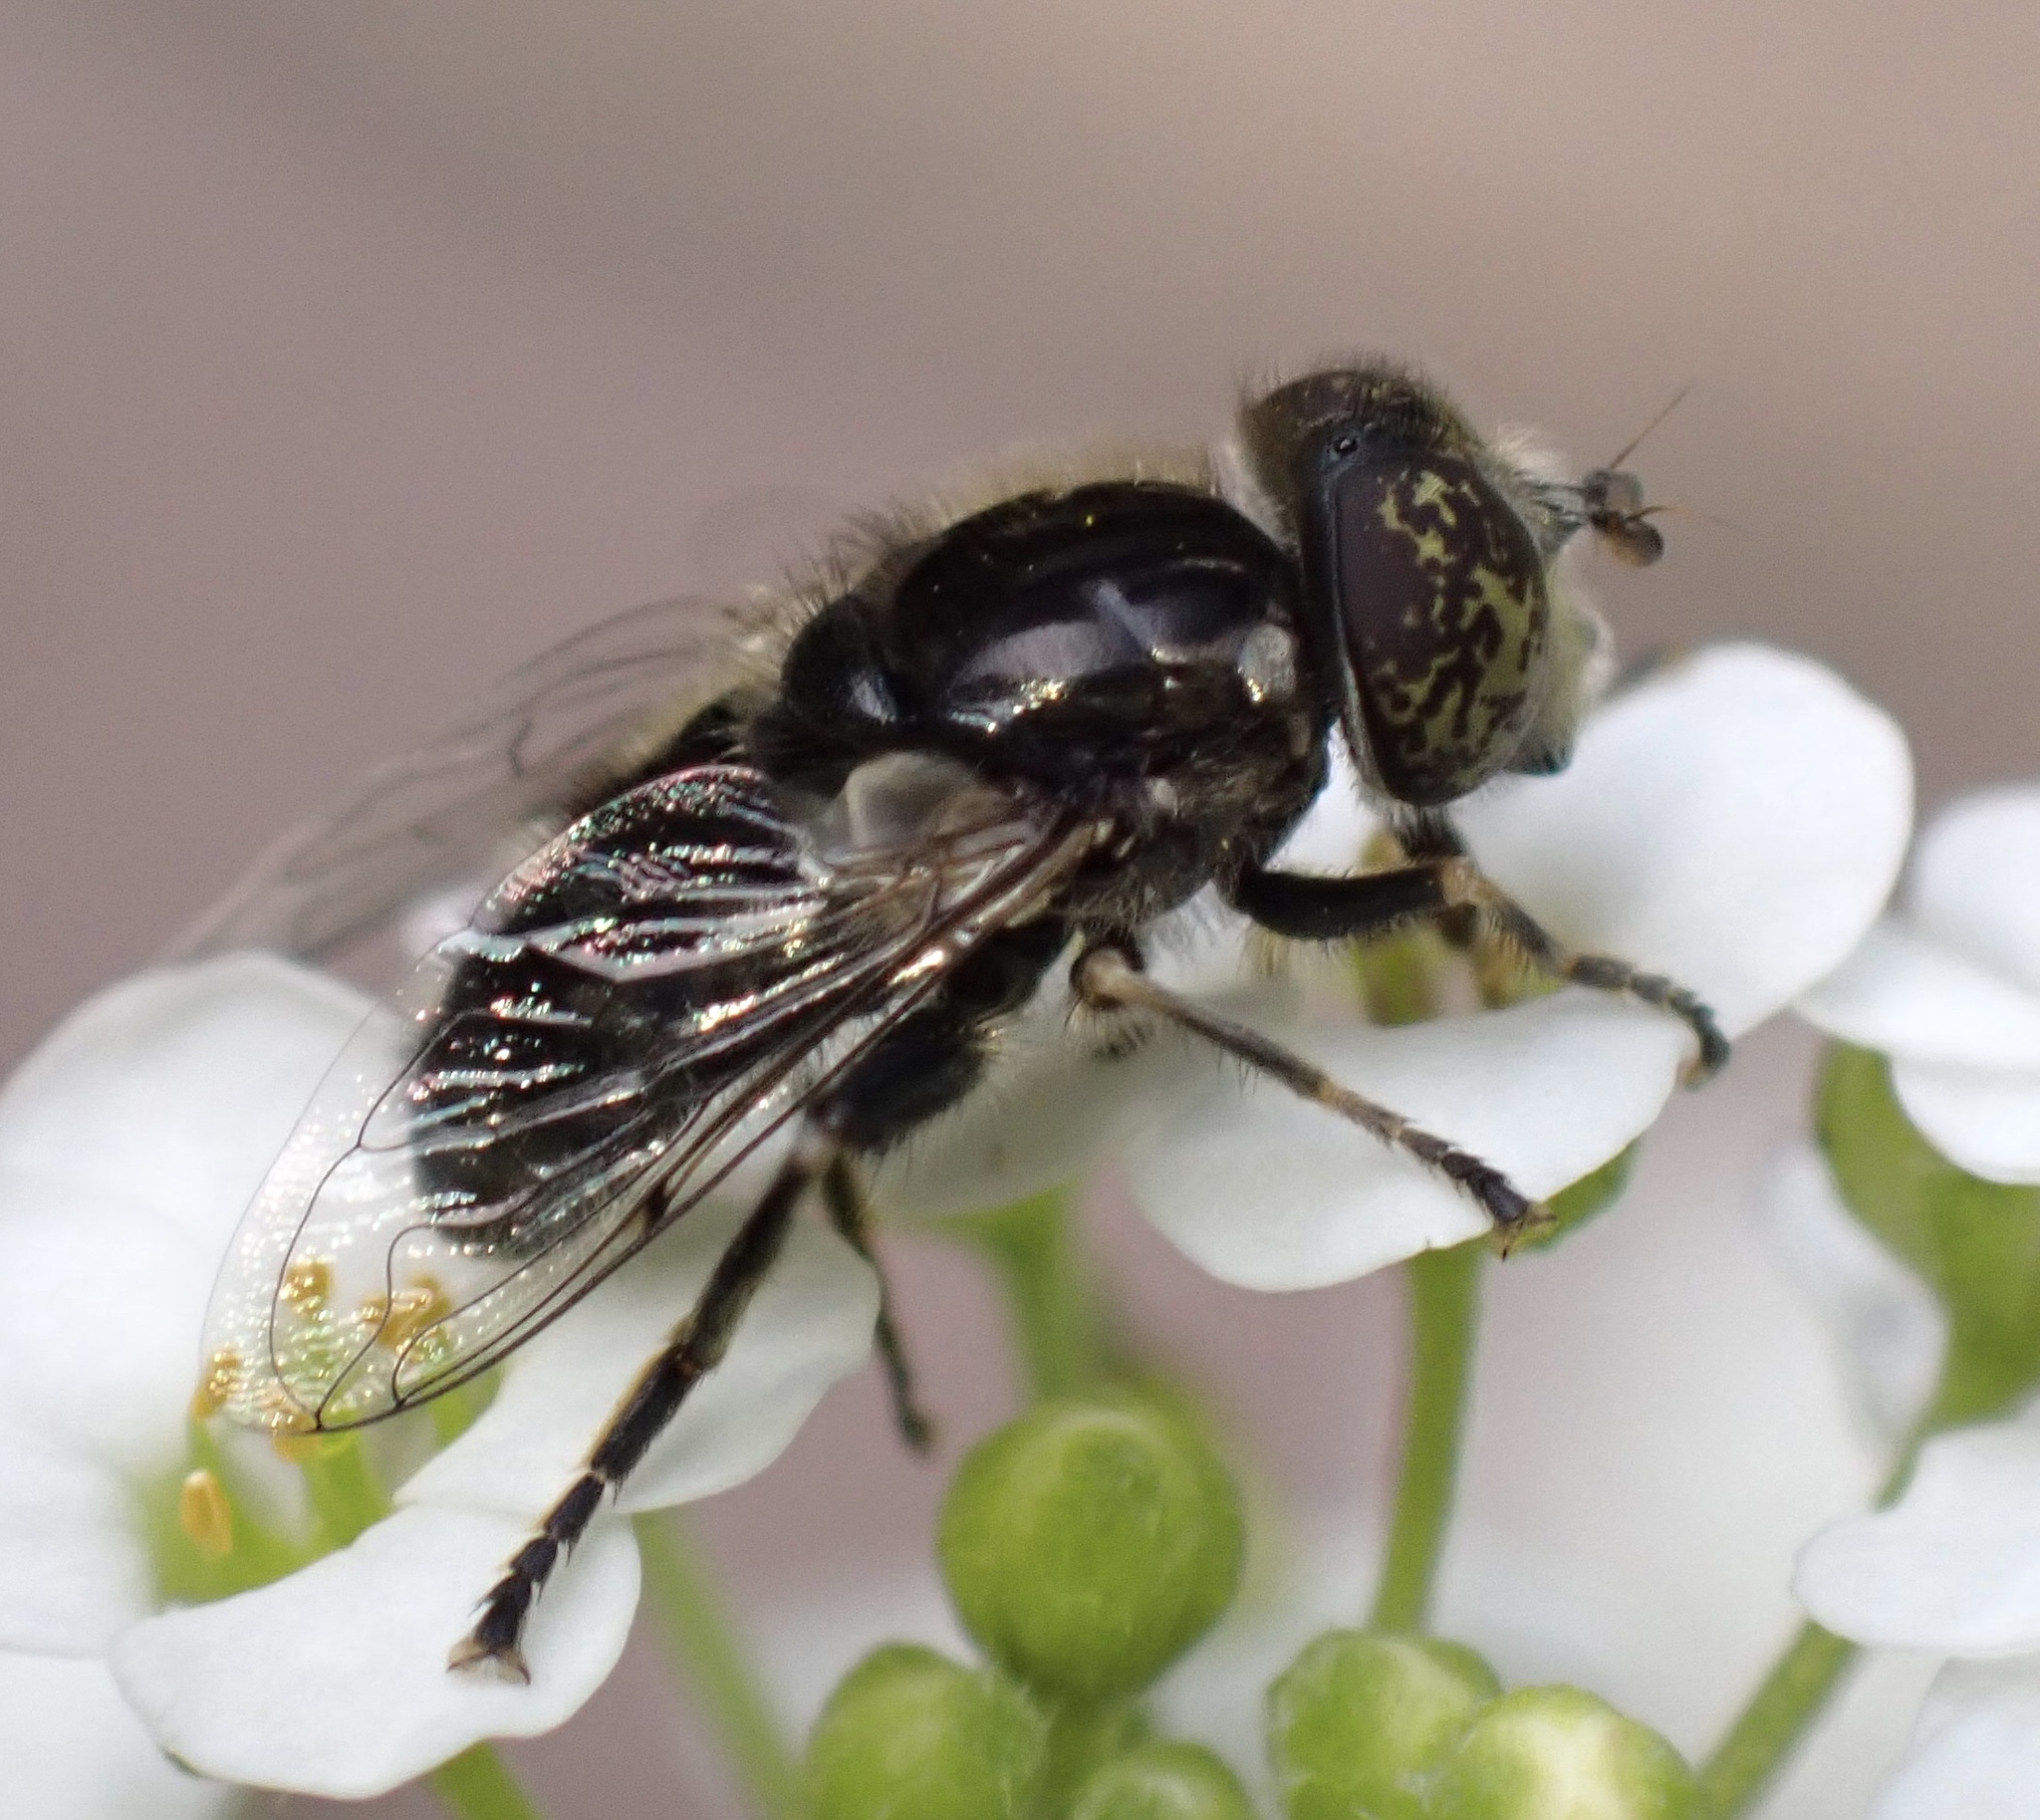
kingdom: Animalia
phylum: Arthropoda
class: Insecta
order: Diptera
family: Syrphidae
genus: Eristalinus
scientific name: Eristalinus sepulchralis
